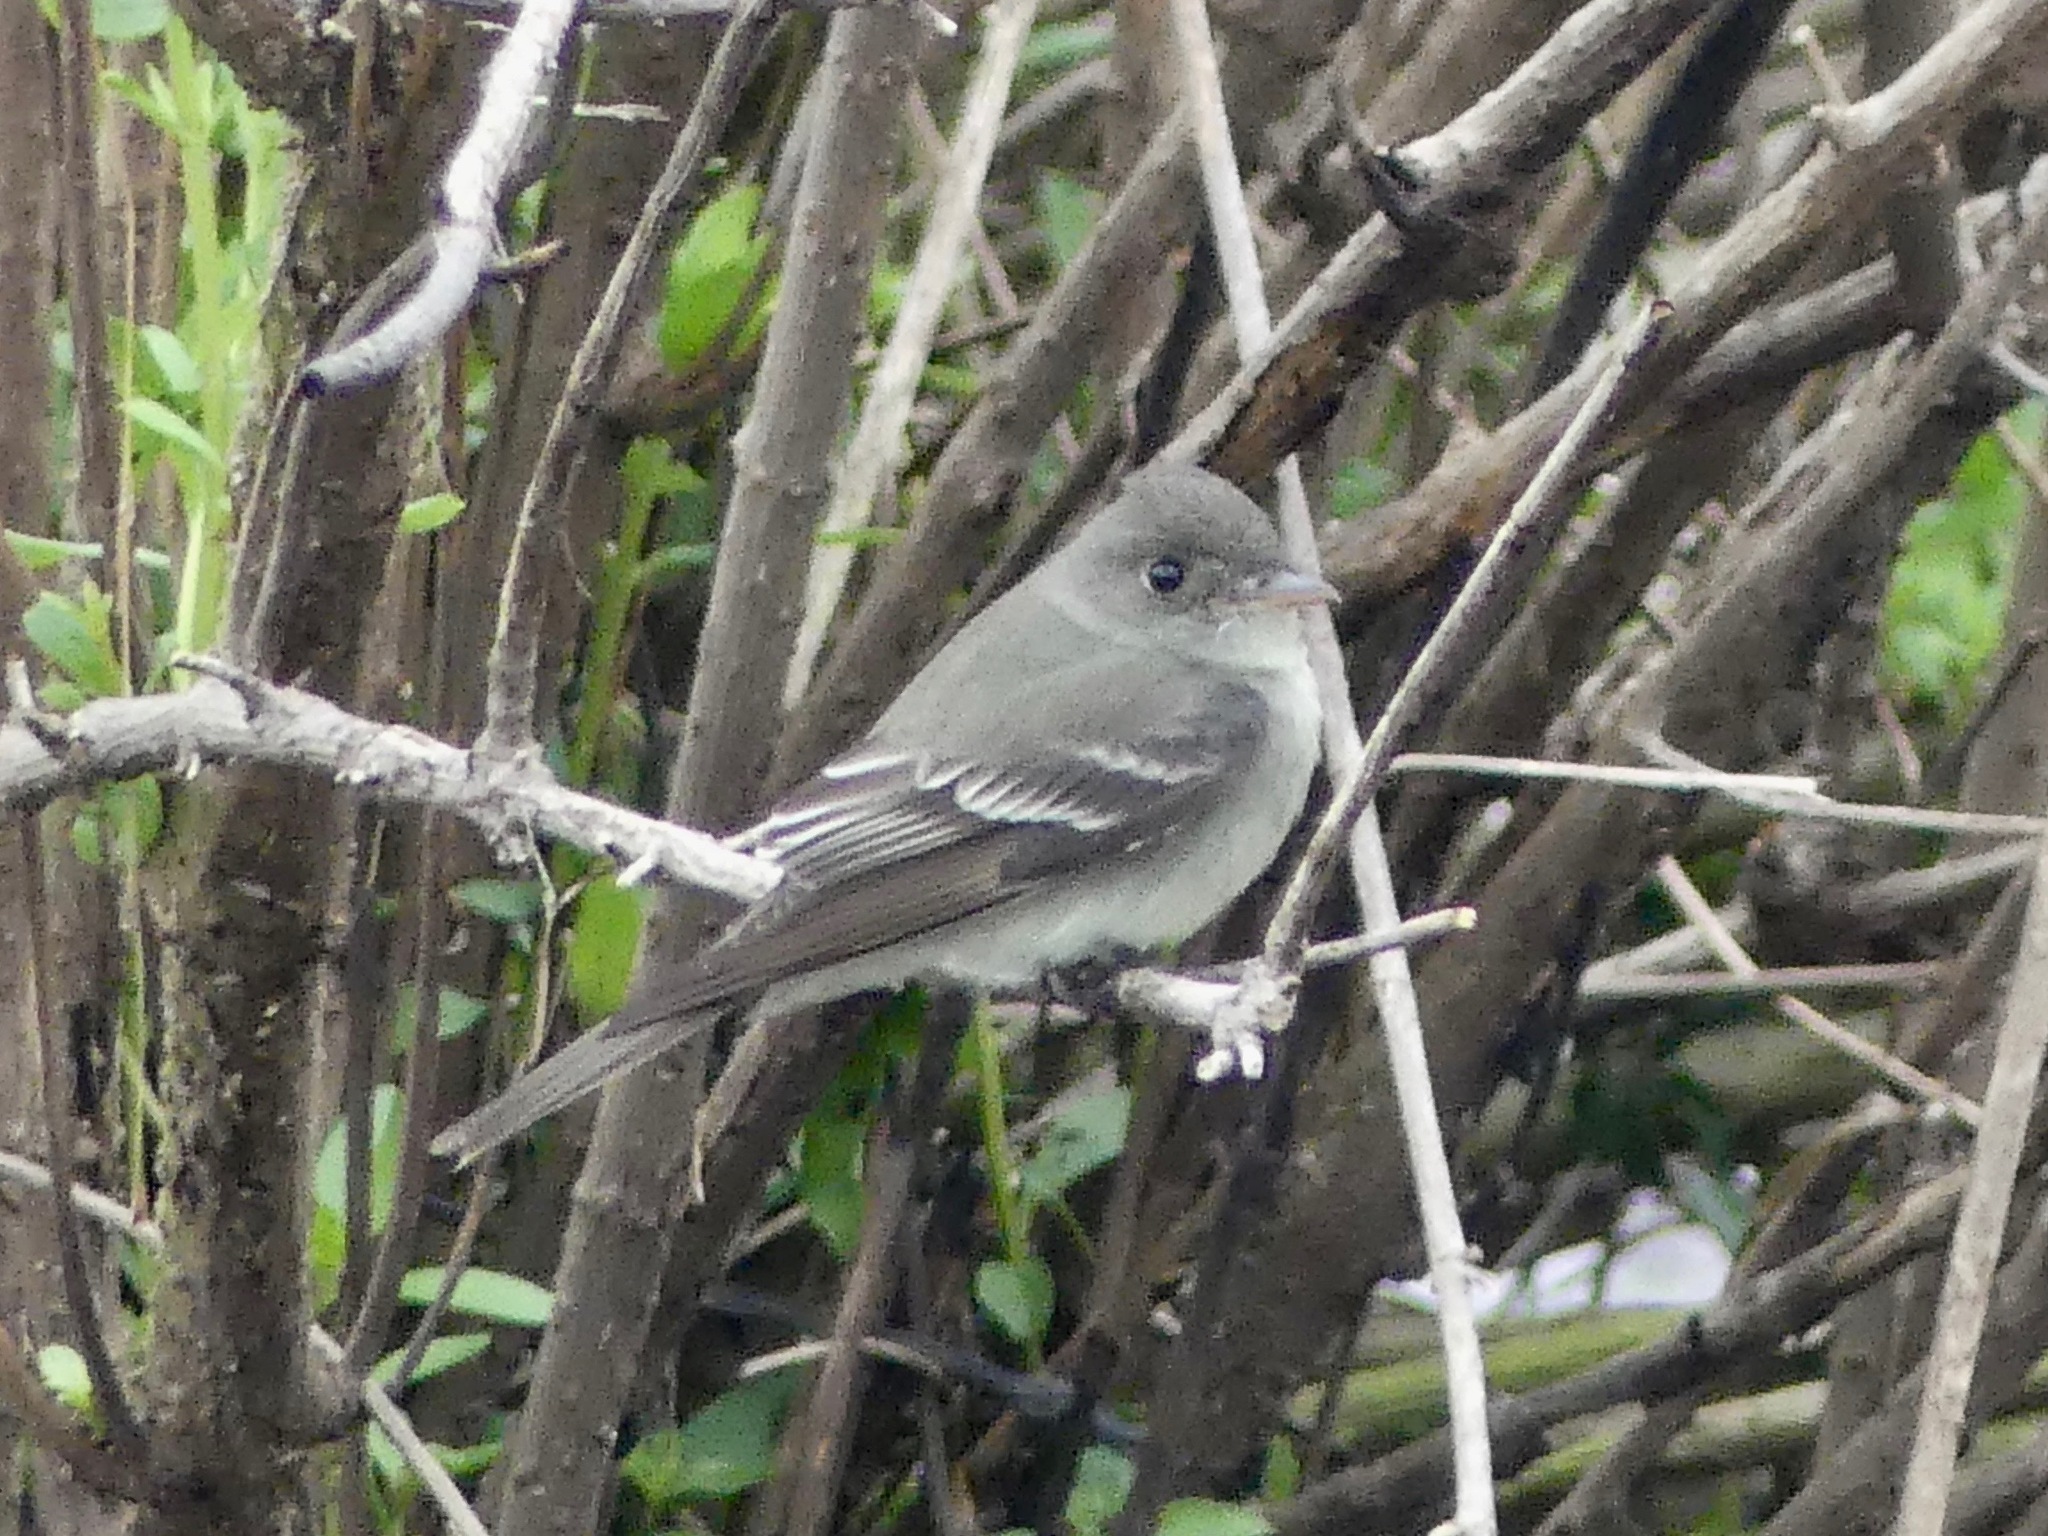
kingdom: Animalia
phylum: Chordata
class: Aves
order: Passeriformes
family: Tyrannidae
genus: Contopus
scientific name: Contopus virens
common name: Eastern wood-pewee
